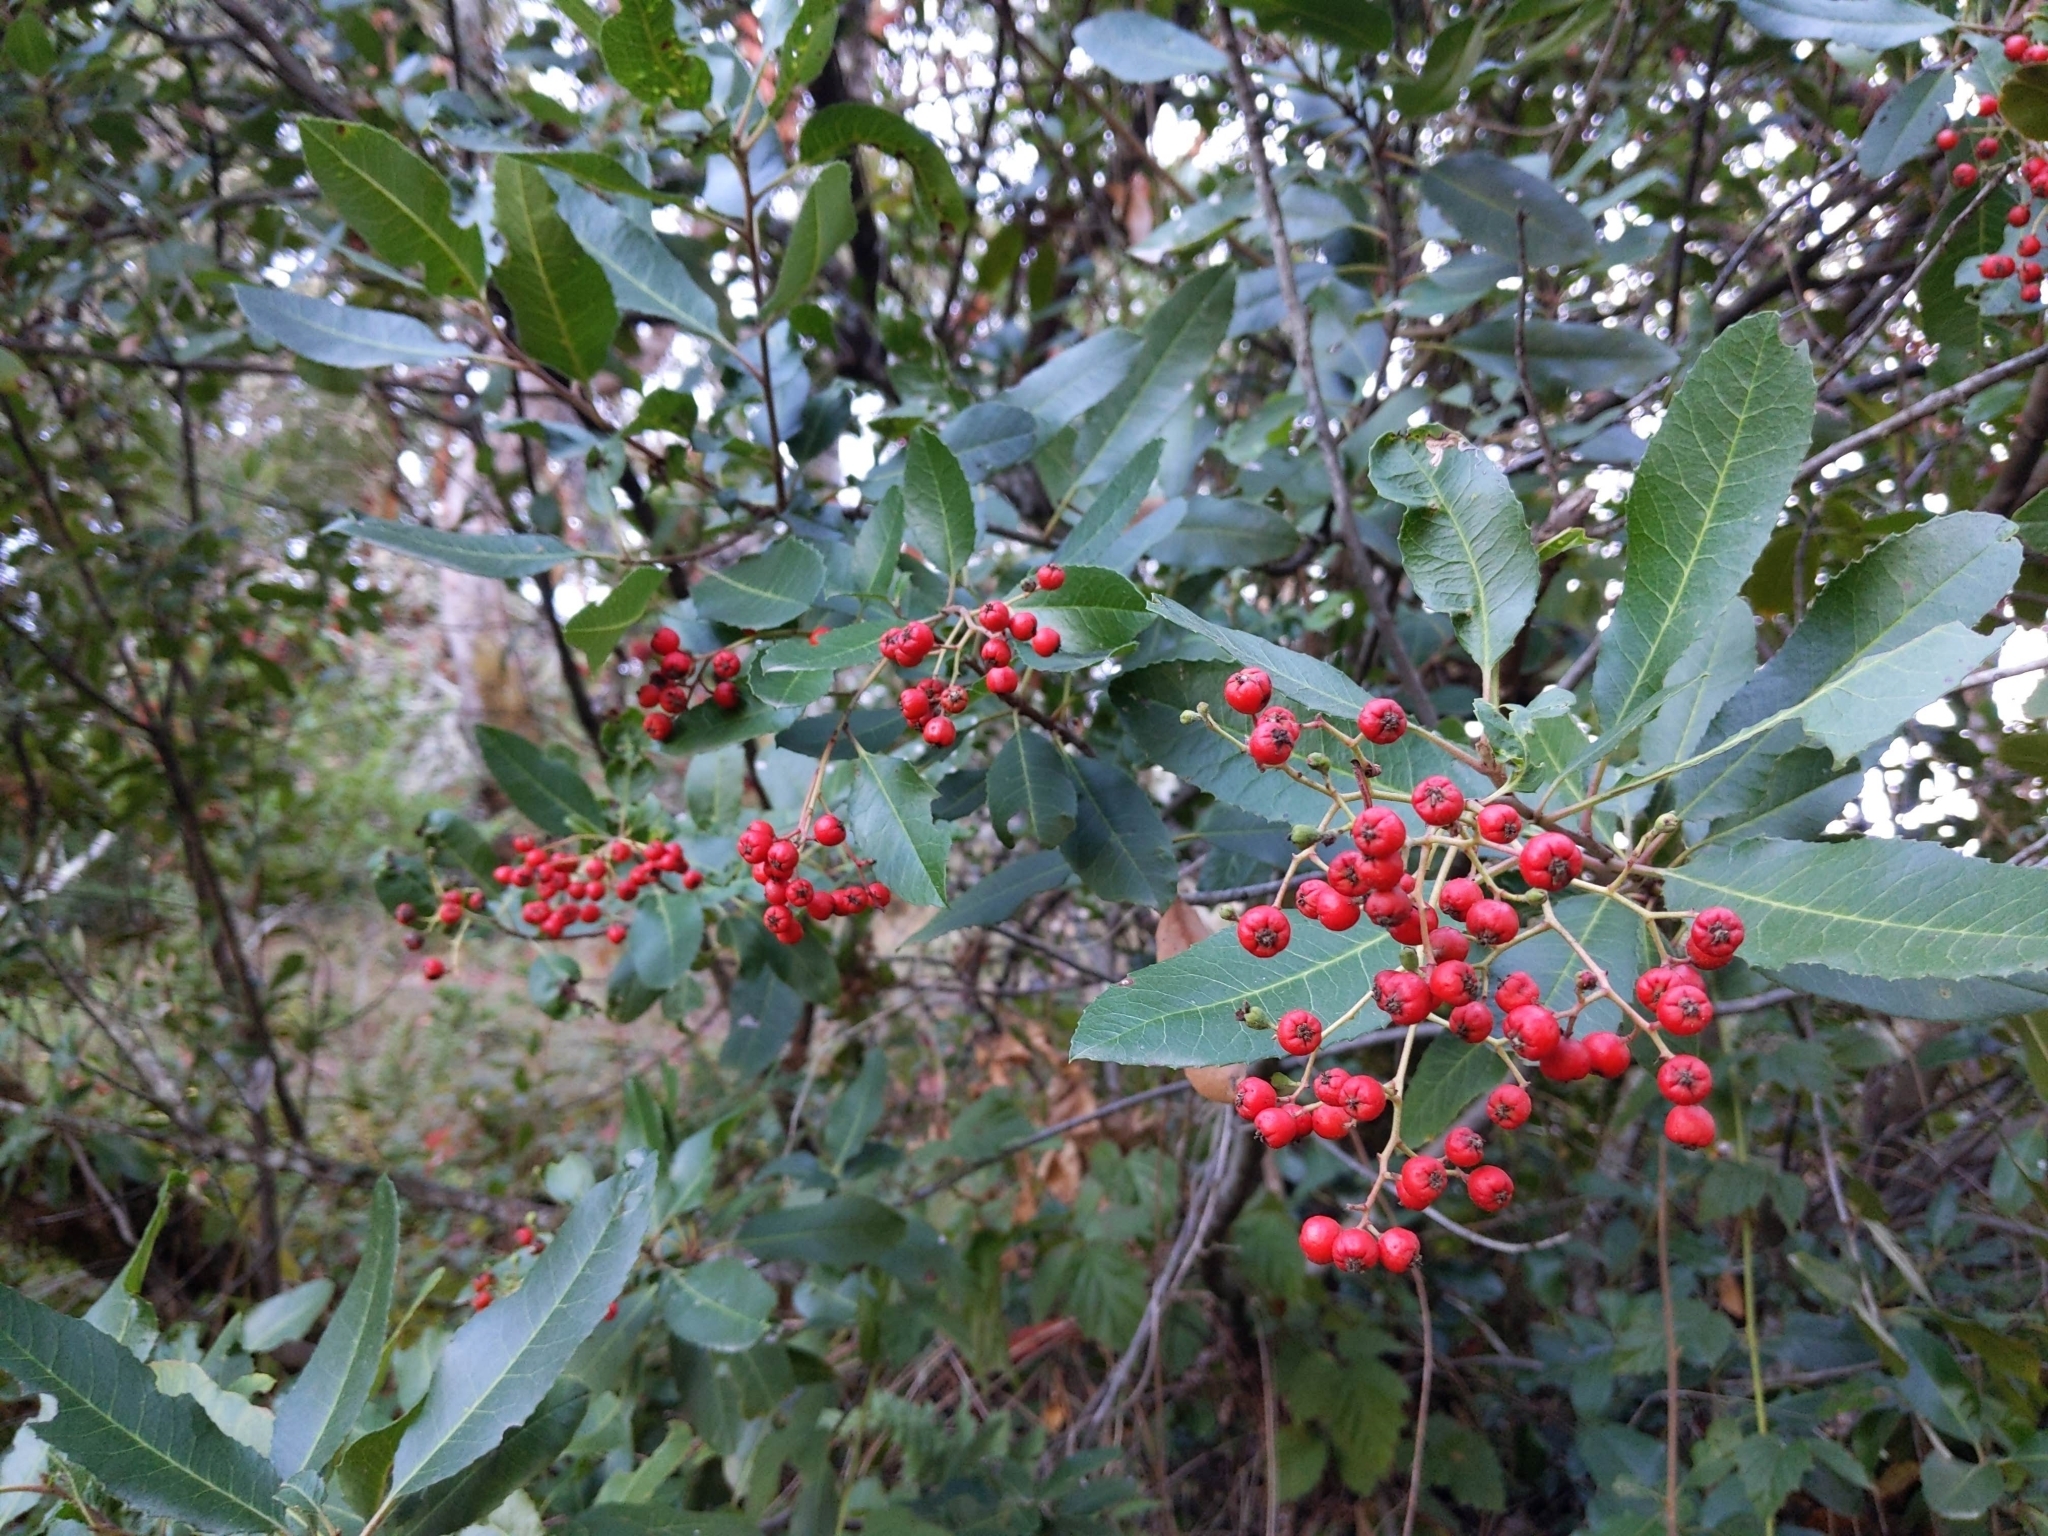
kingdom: Plantae
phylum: Tracheophyta
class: Magnoliopsida
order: Rosales
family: Rosaceae
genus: Heteromeles
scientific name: Heteromeles arbutifolia
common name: California-holly
